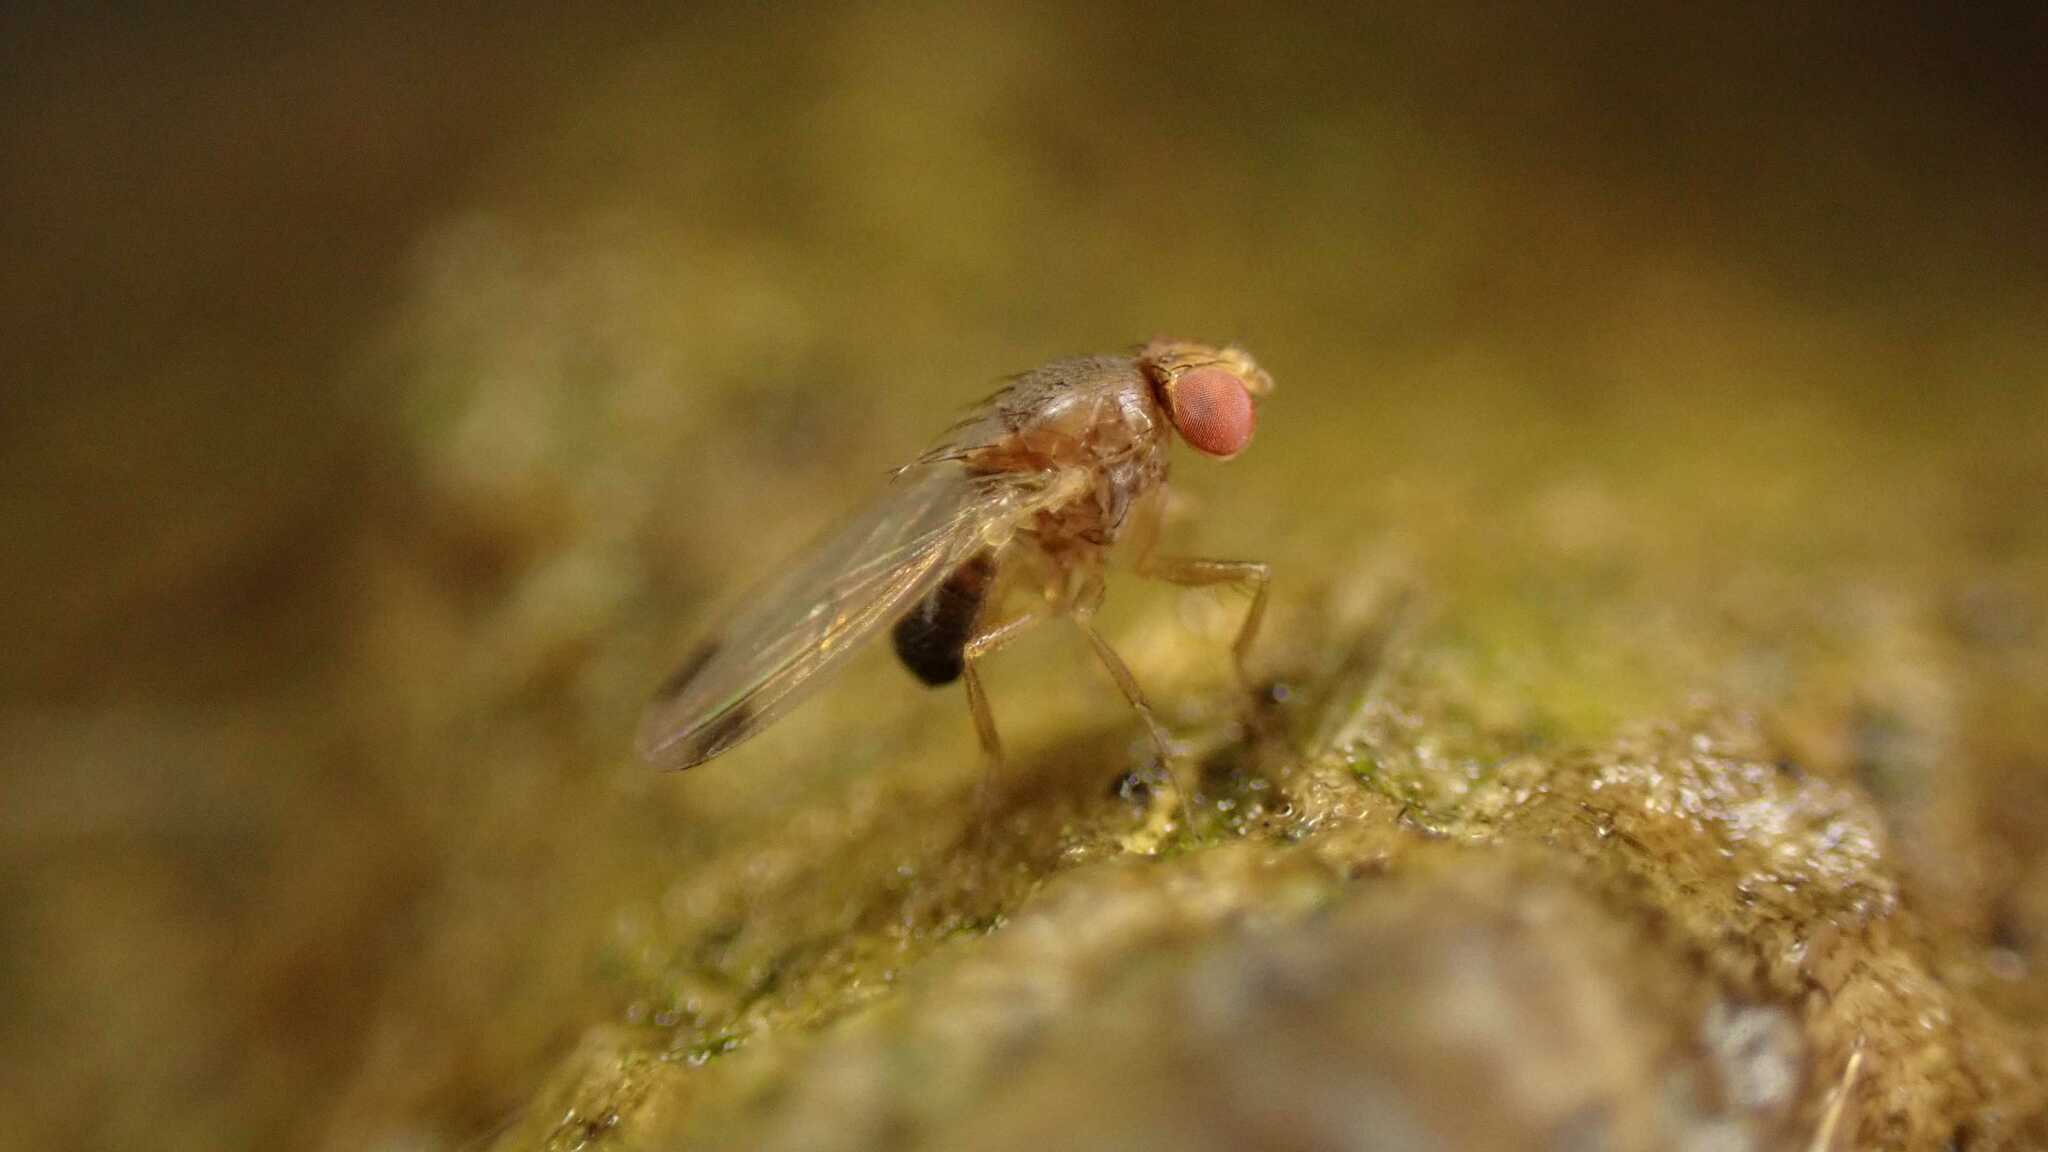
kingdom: Animalia
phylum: Arthropoda
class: Insecta
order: Diptera
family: Drosophilidae
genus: Drosophila
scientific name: Drosophila suzukii
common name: Spotted-wing drosophila
